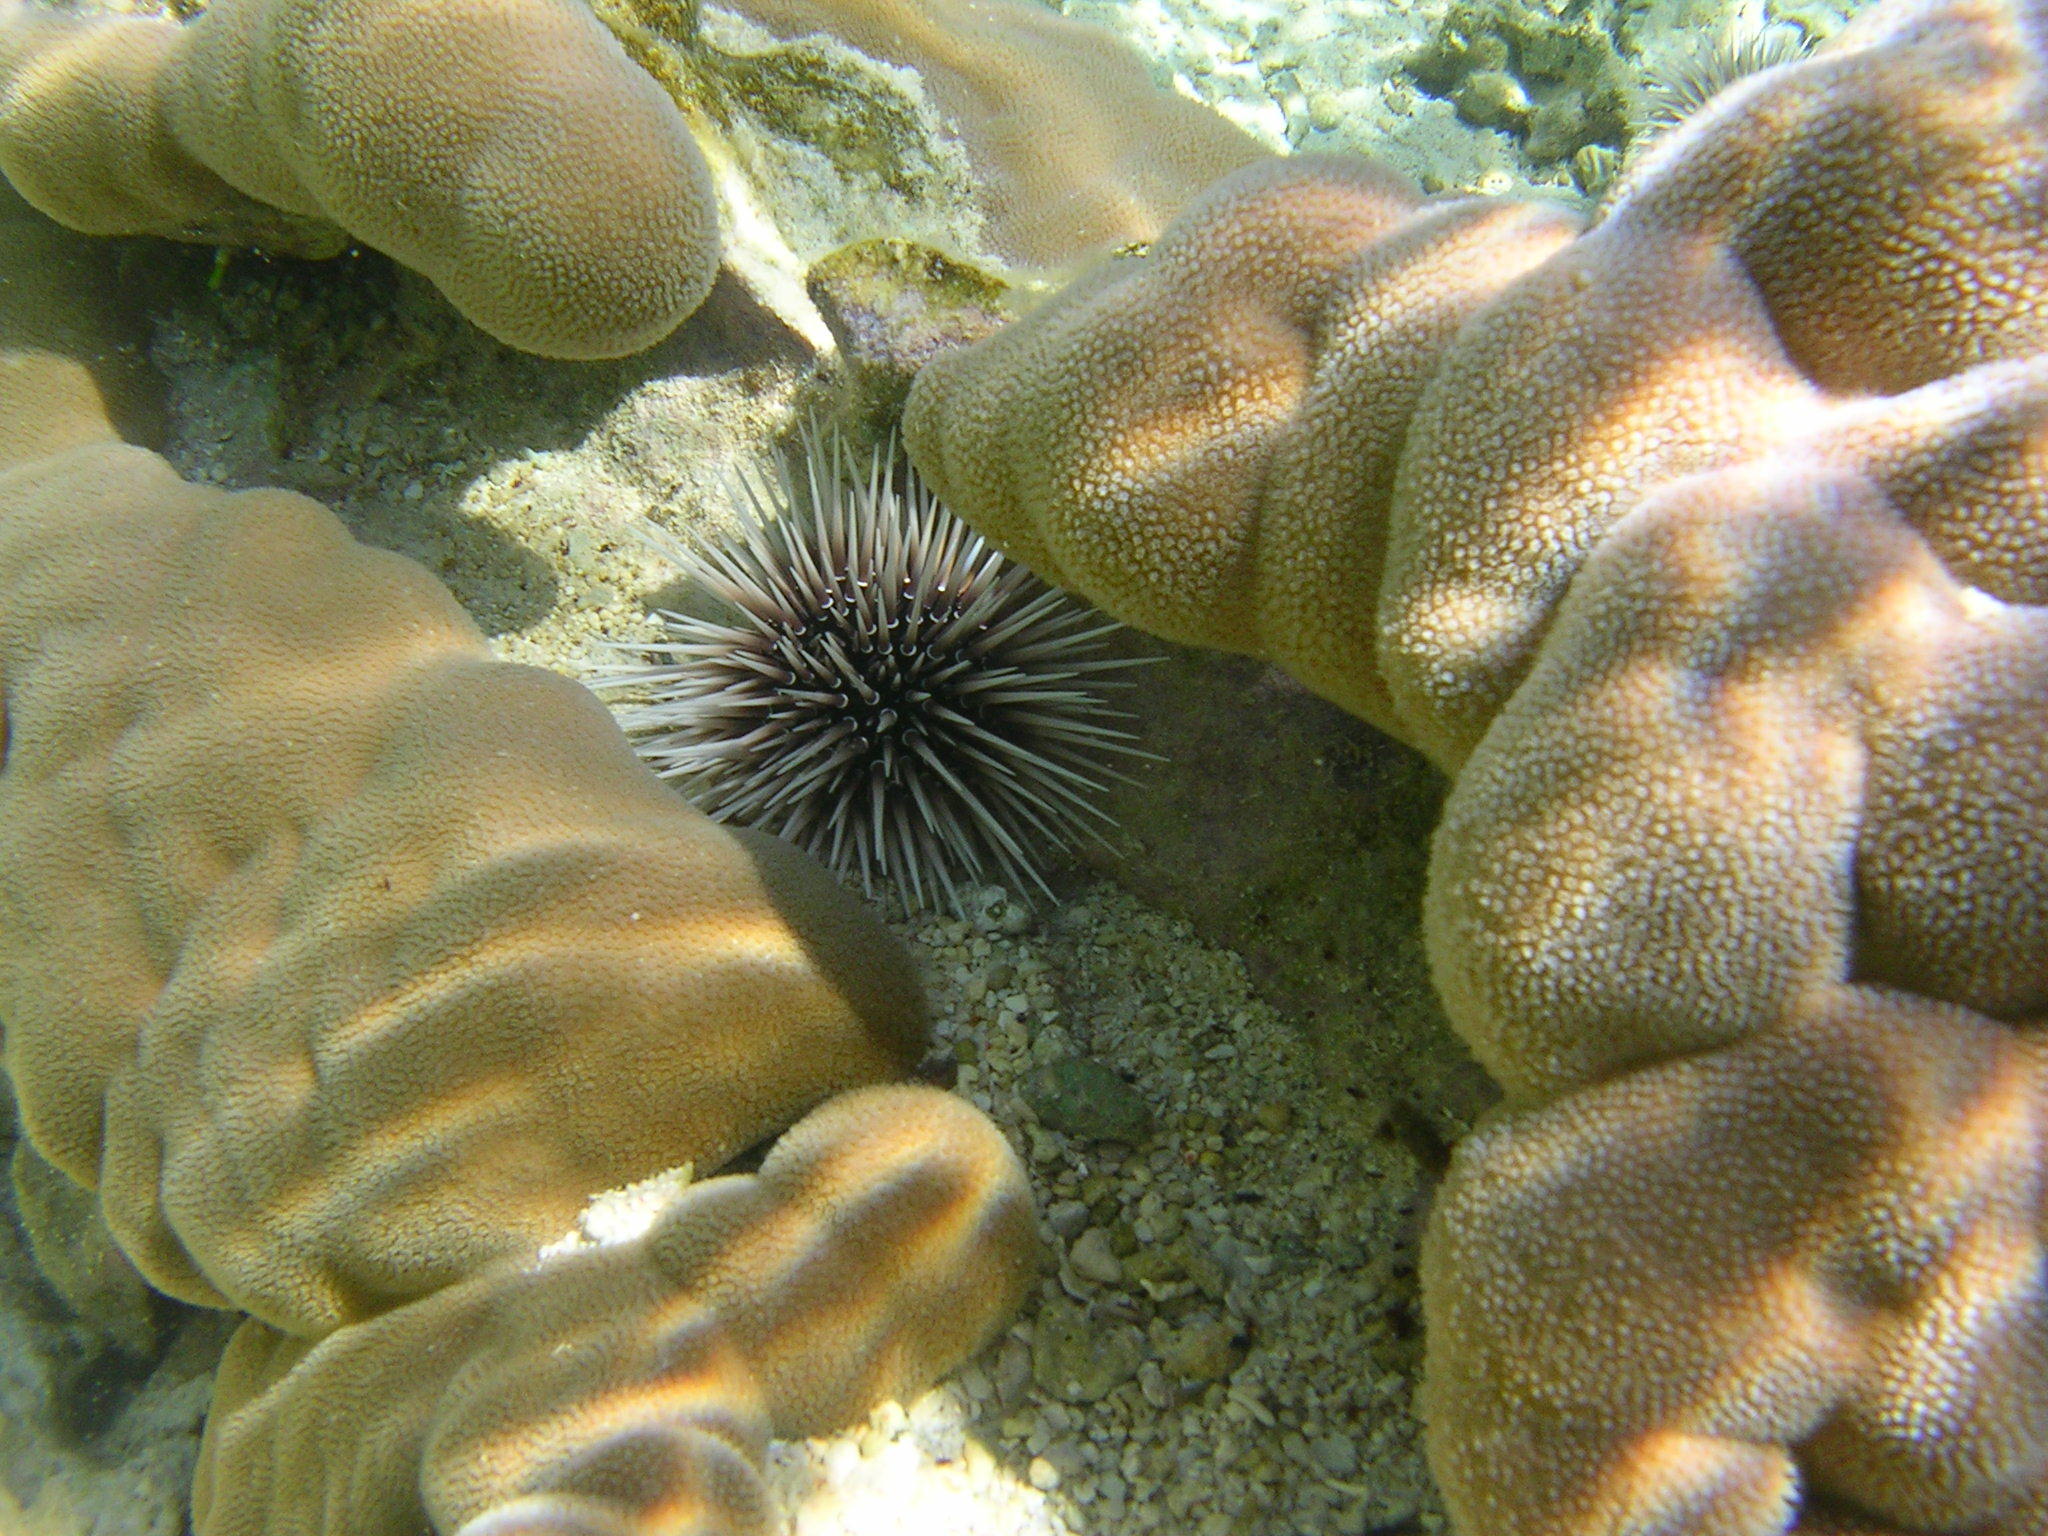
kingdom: Animalia
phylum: Echinodermata
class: Echinoidea
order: Camarodonta
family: Echinometridae
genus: Echinometra
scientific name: Echinometra mathaei
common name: Rock-boring urchin
